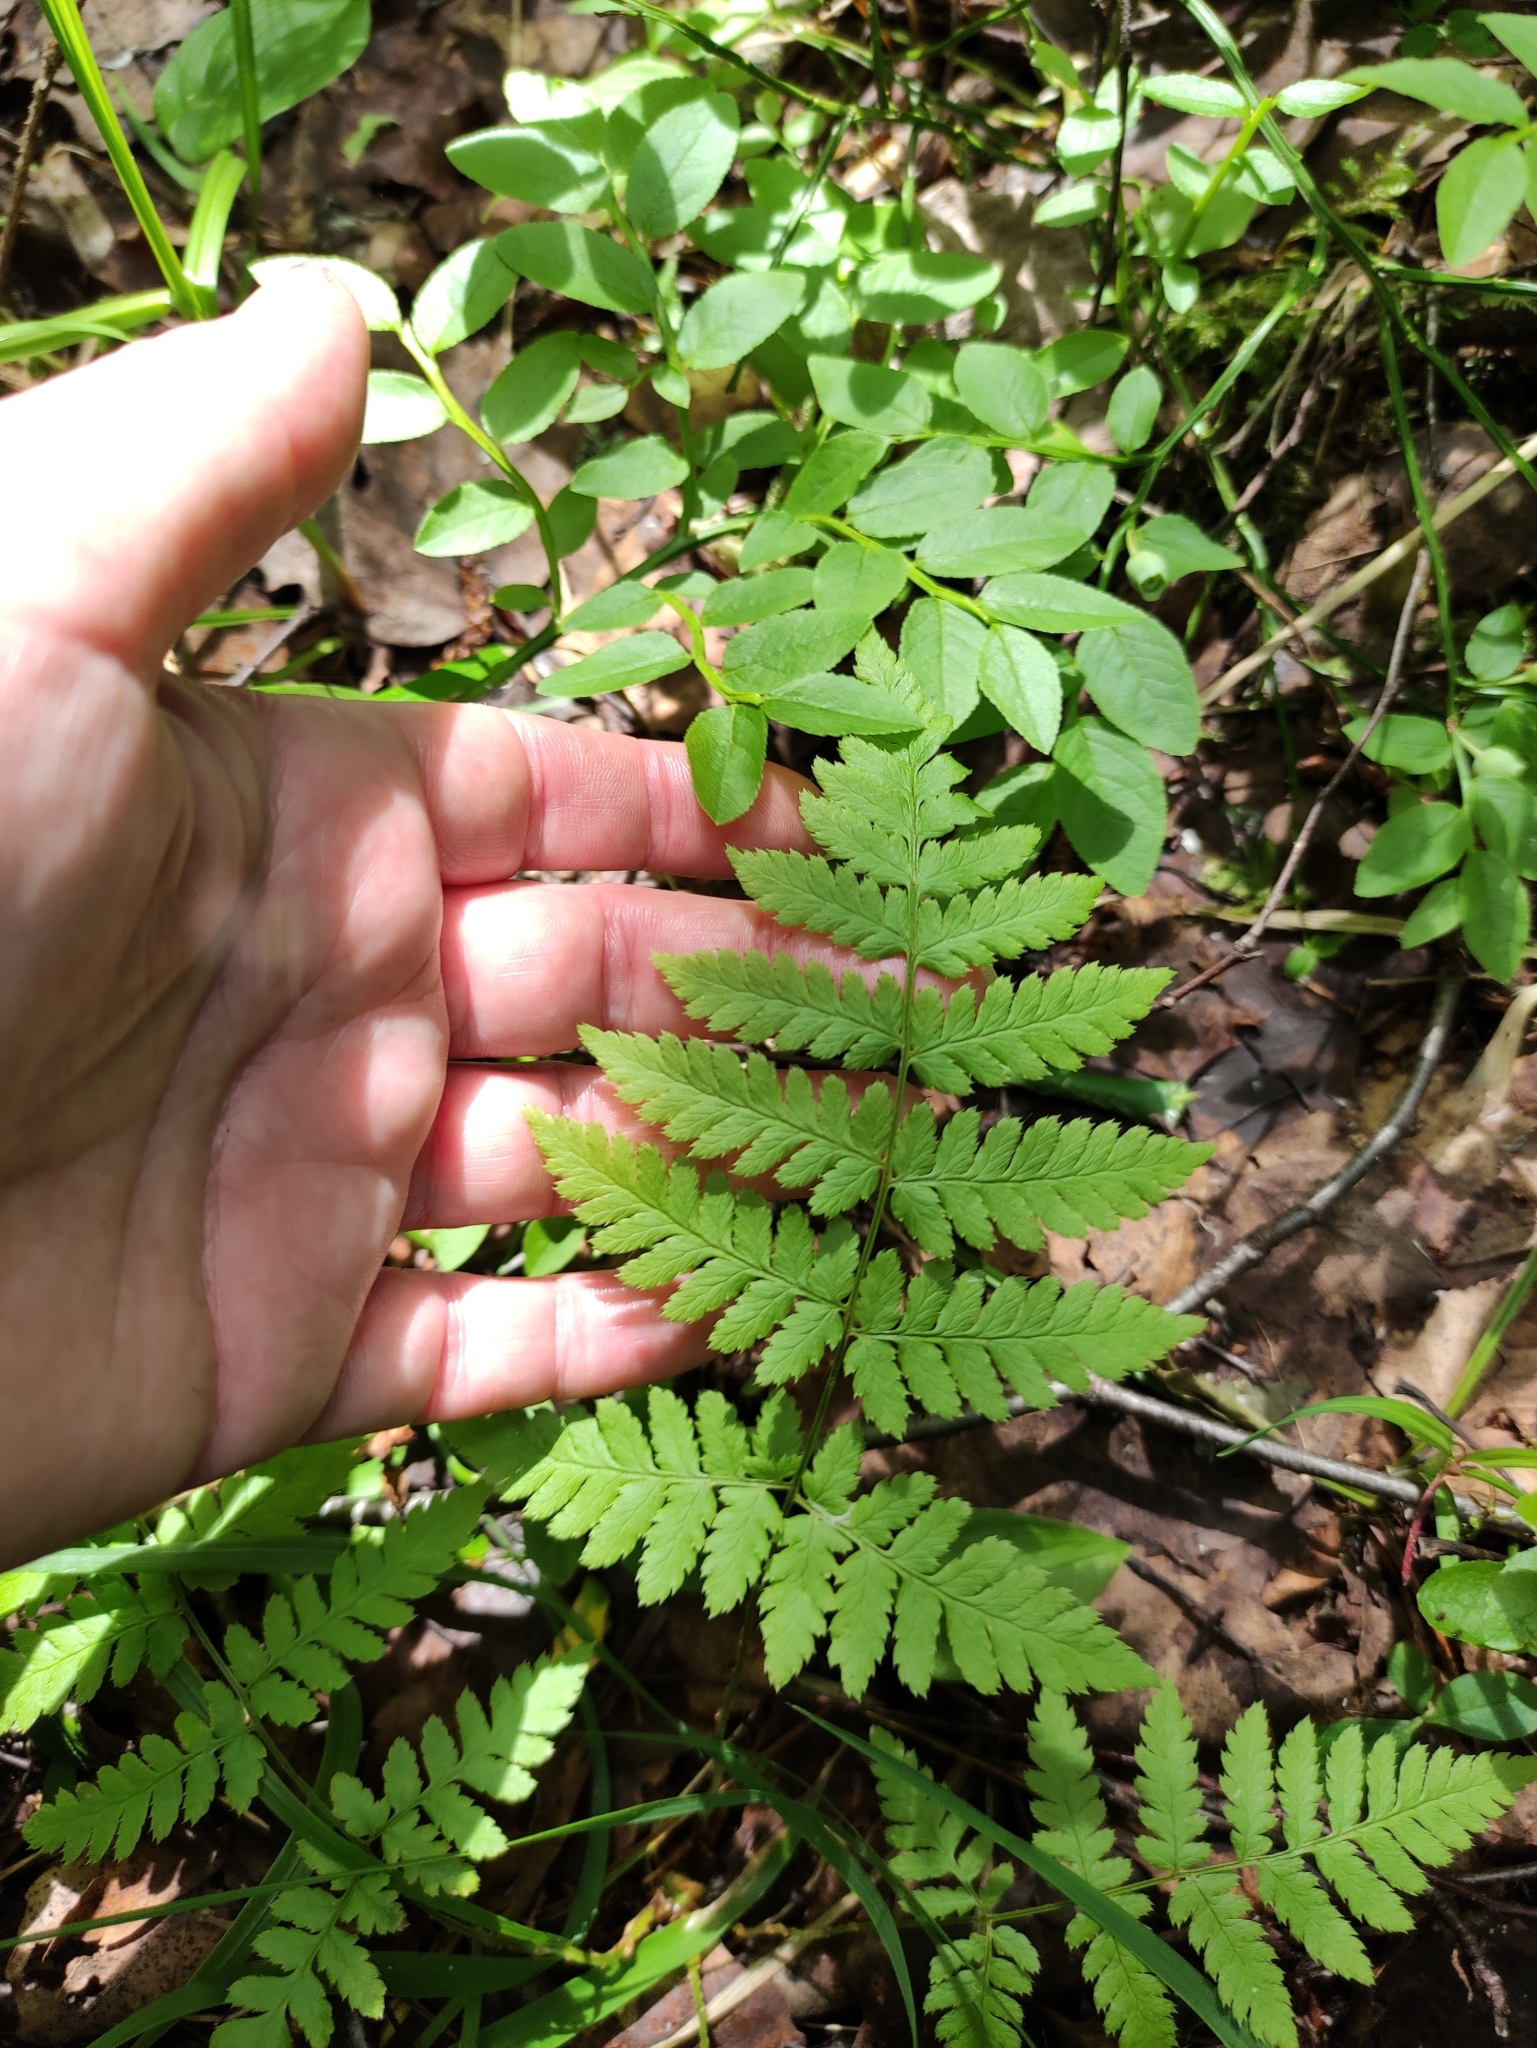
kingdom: Plantae
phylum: Tracheophyta
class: Polypodiopsida
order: Polypodiales
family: Dryopteridaceae
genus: Dryopteris
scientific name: Dryopteris carthusiana
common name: Narrow buckler-fern
